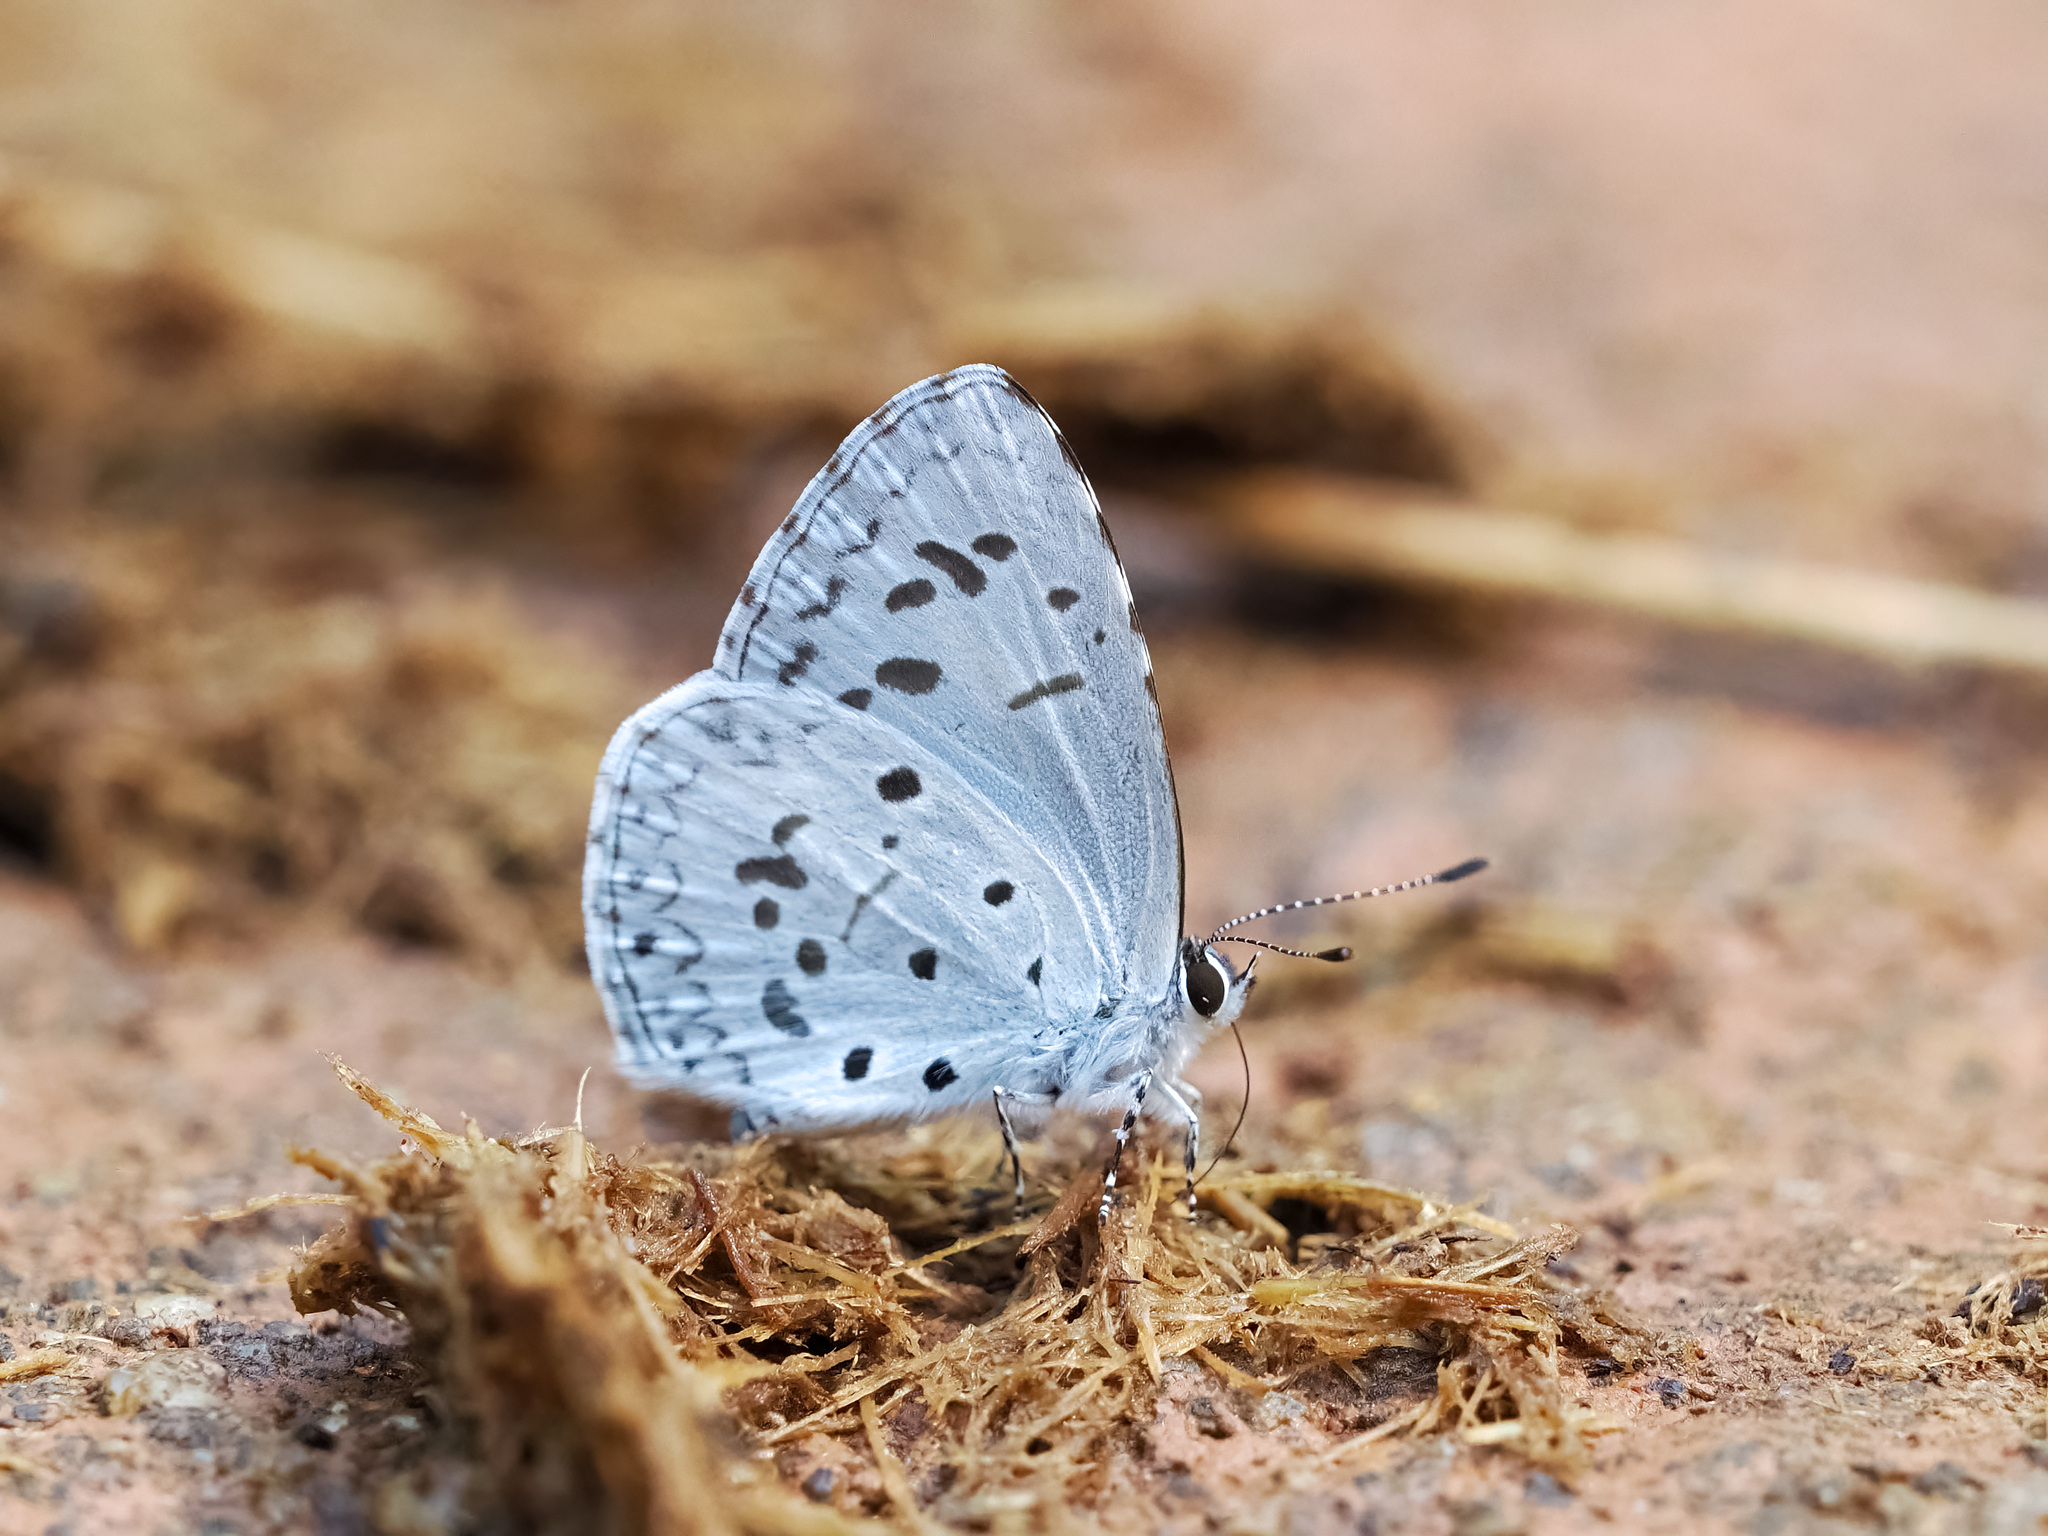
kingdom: Animalia
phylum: Arthropoda
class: Insecta
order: Lepidoptera
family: Lycaenidae
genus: Acytolepis
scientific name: Acytolepis puspa
